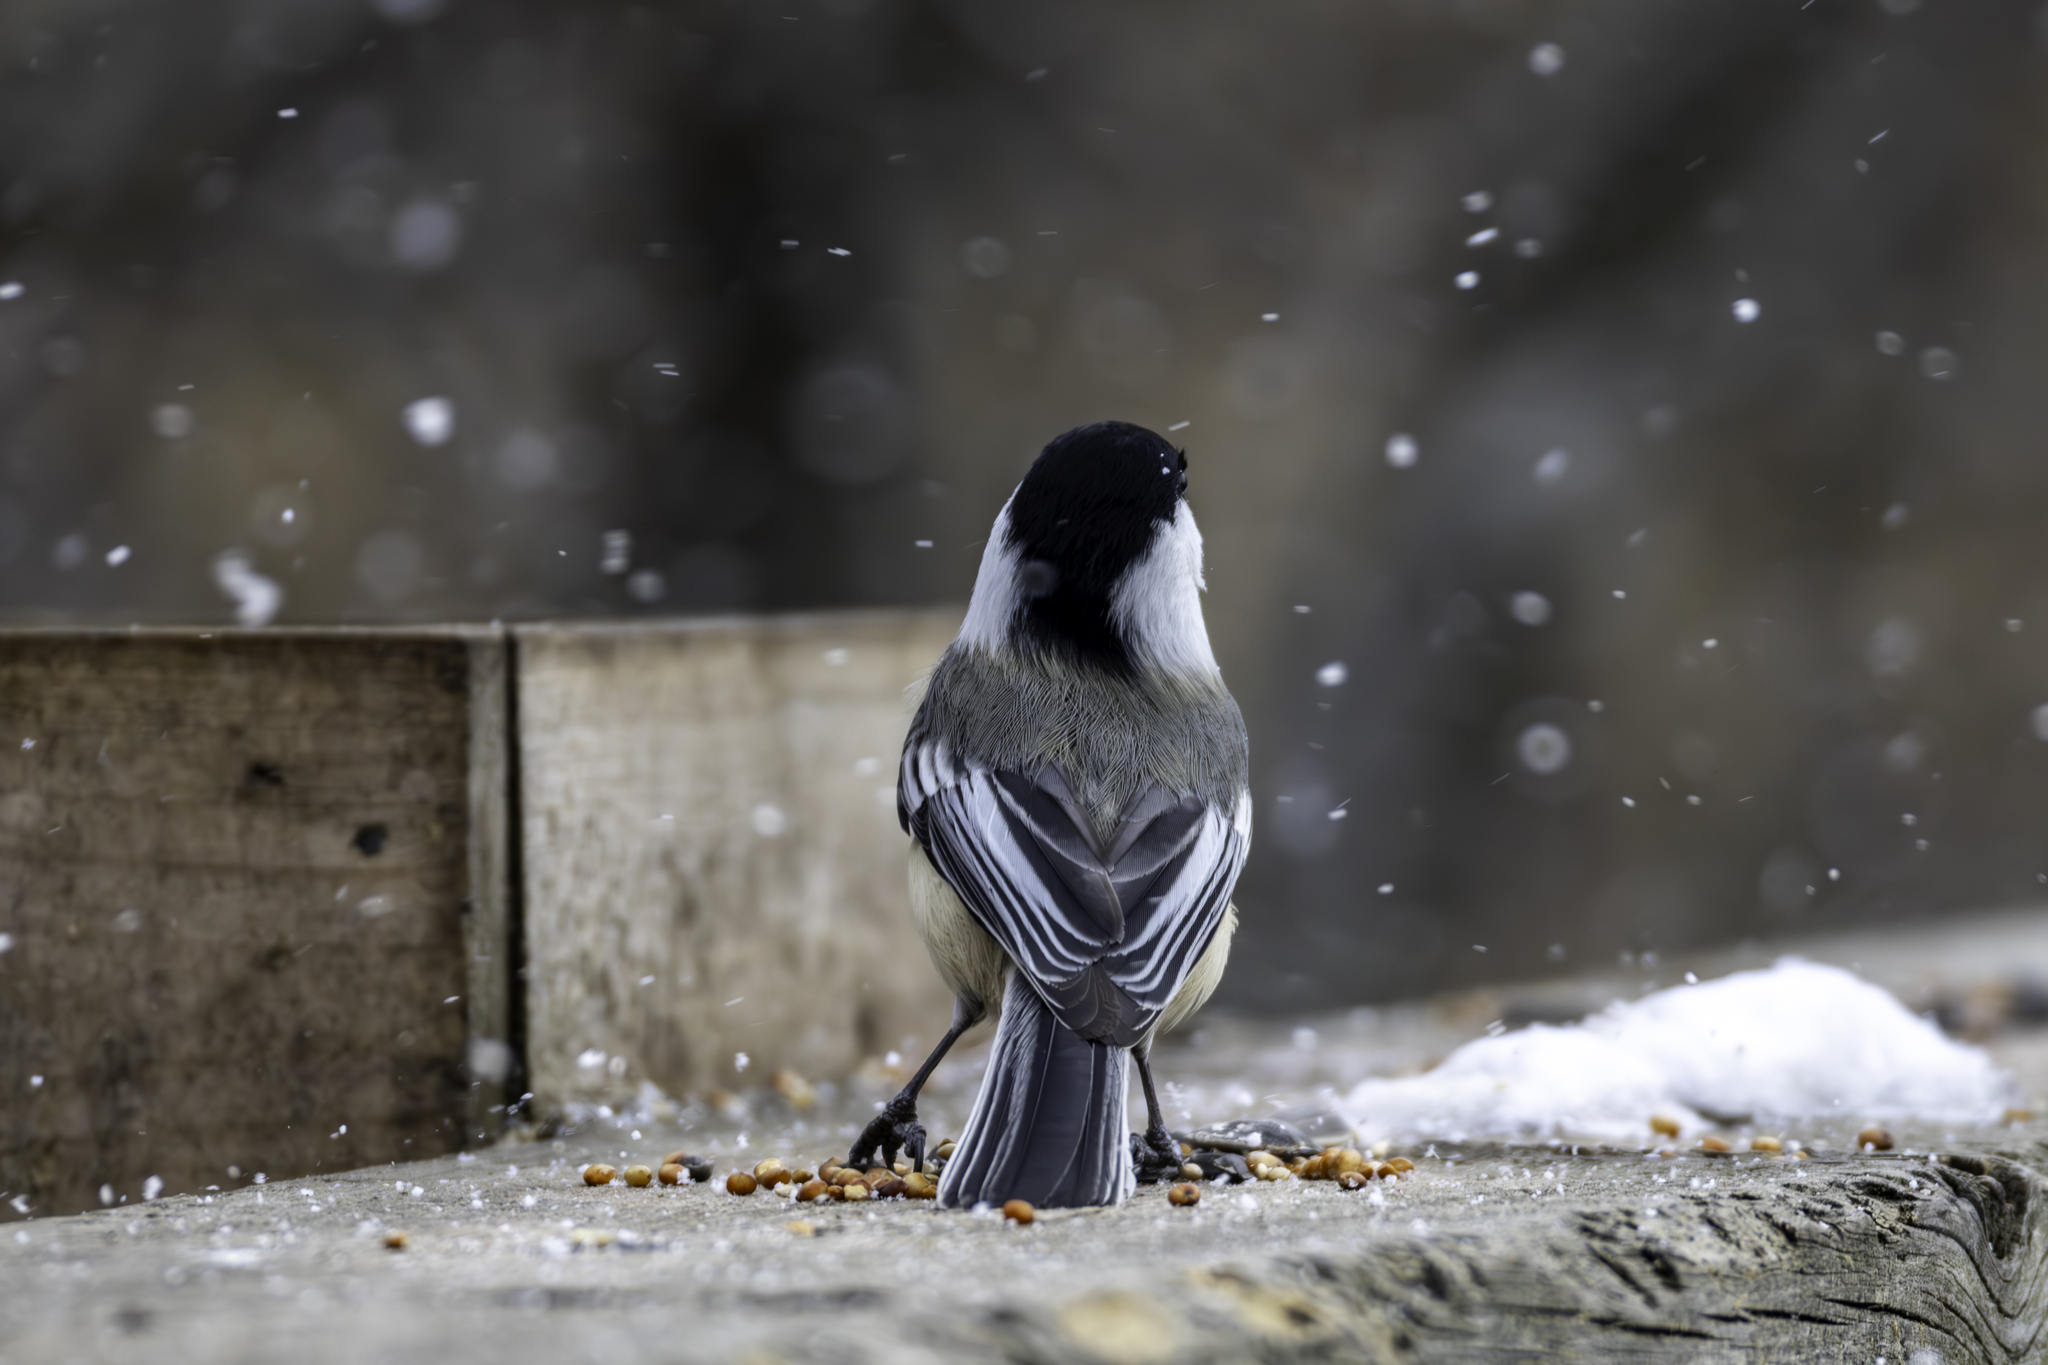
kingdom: Animalia
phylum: Chordata
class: Aves
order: Passeriformes
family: Paridae
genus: Poecile
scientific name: Poecile atricapillus
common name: Black-capped chickadee
